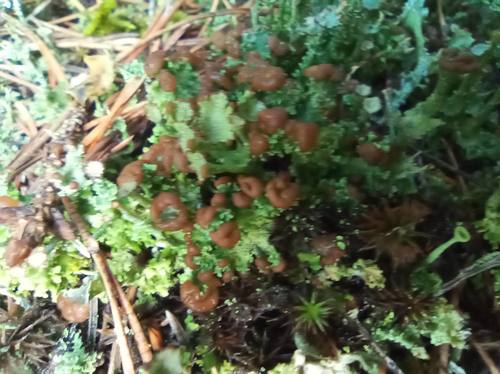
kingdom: Fungi
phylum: Ascomycota
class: Lecanoromycetes
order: Lecanorales
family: Cladoniaceae
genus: Cladonia
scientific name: Cladonia gracilis
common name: Smooth clad lichen
